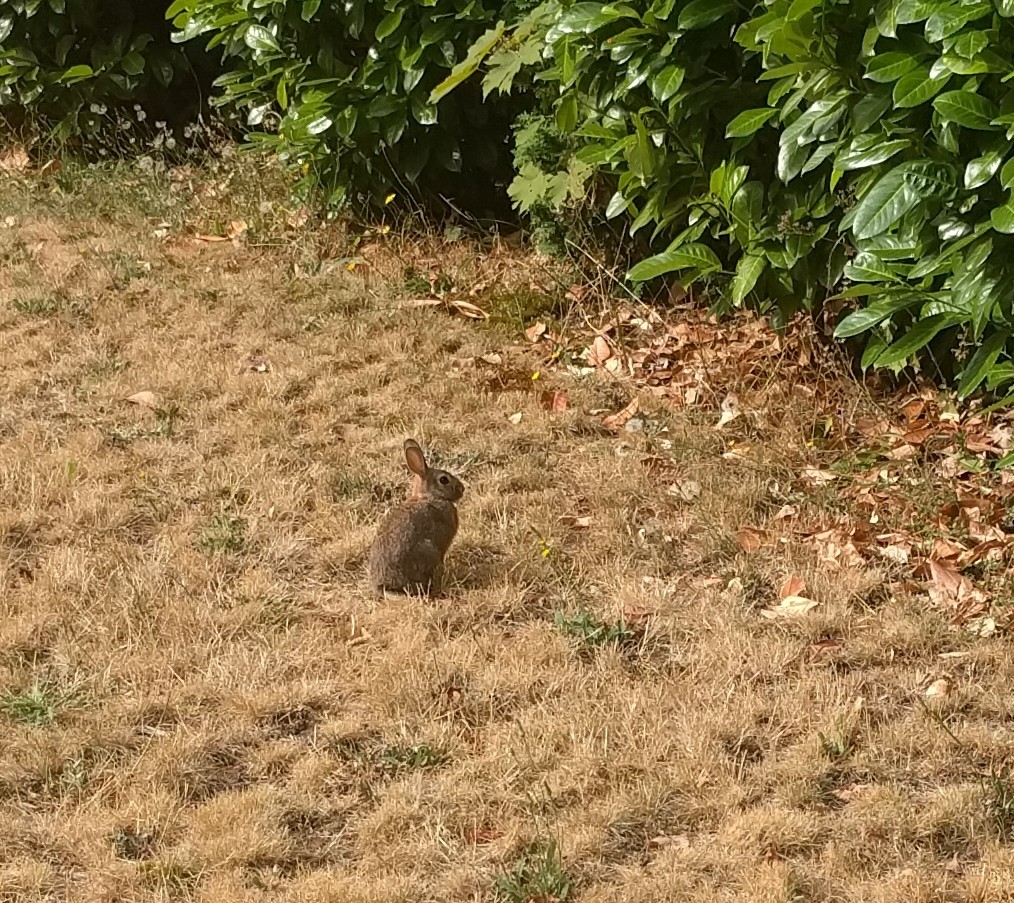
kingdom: Animalia
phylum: Chordata
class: Mammalia
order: Lagomorpha
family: Leporidae
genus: Sylvilagus
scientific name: Sylvilagus floridanus
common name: Eastern cottontail
